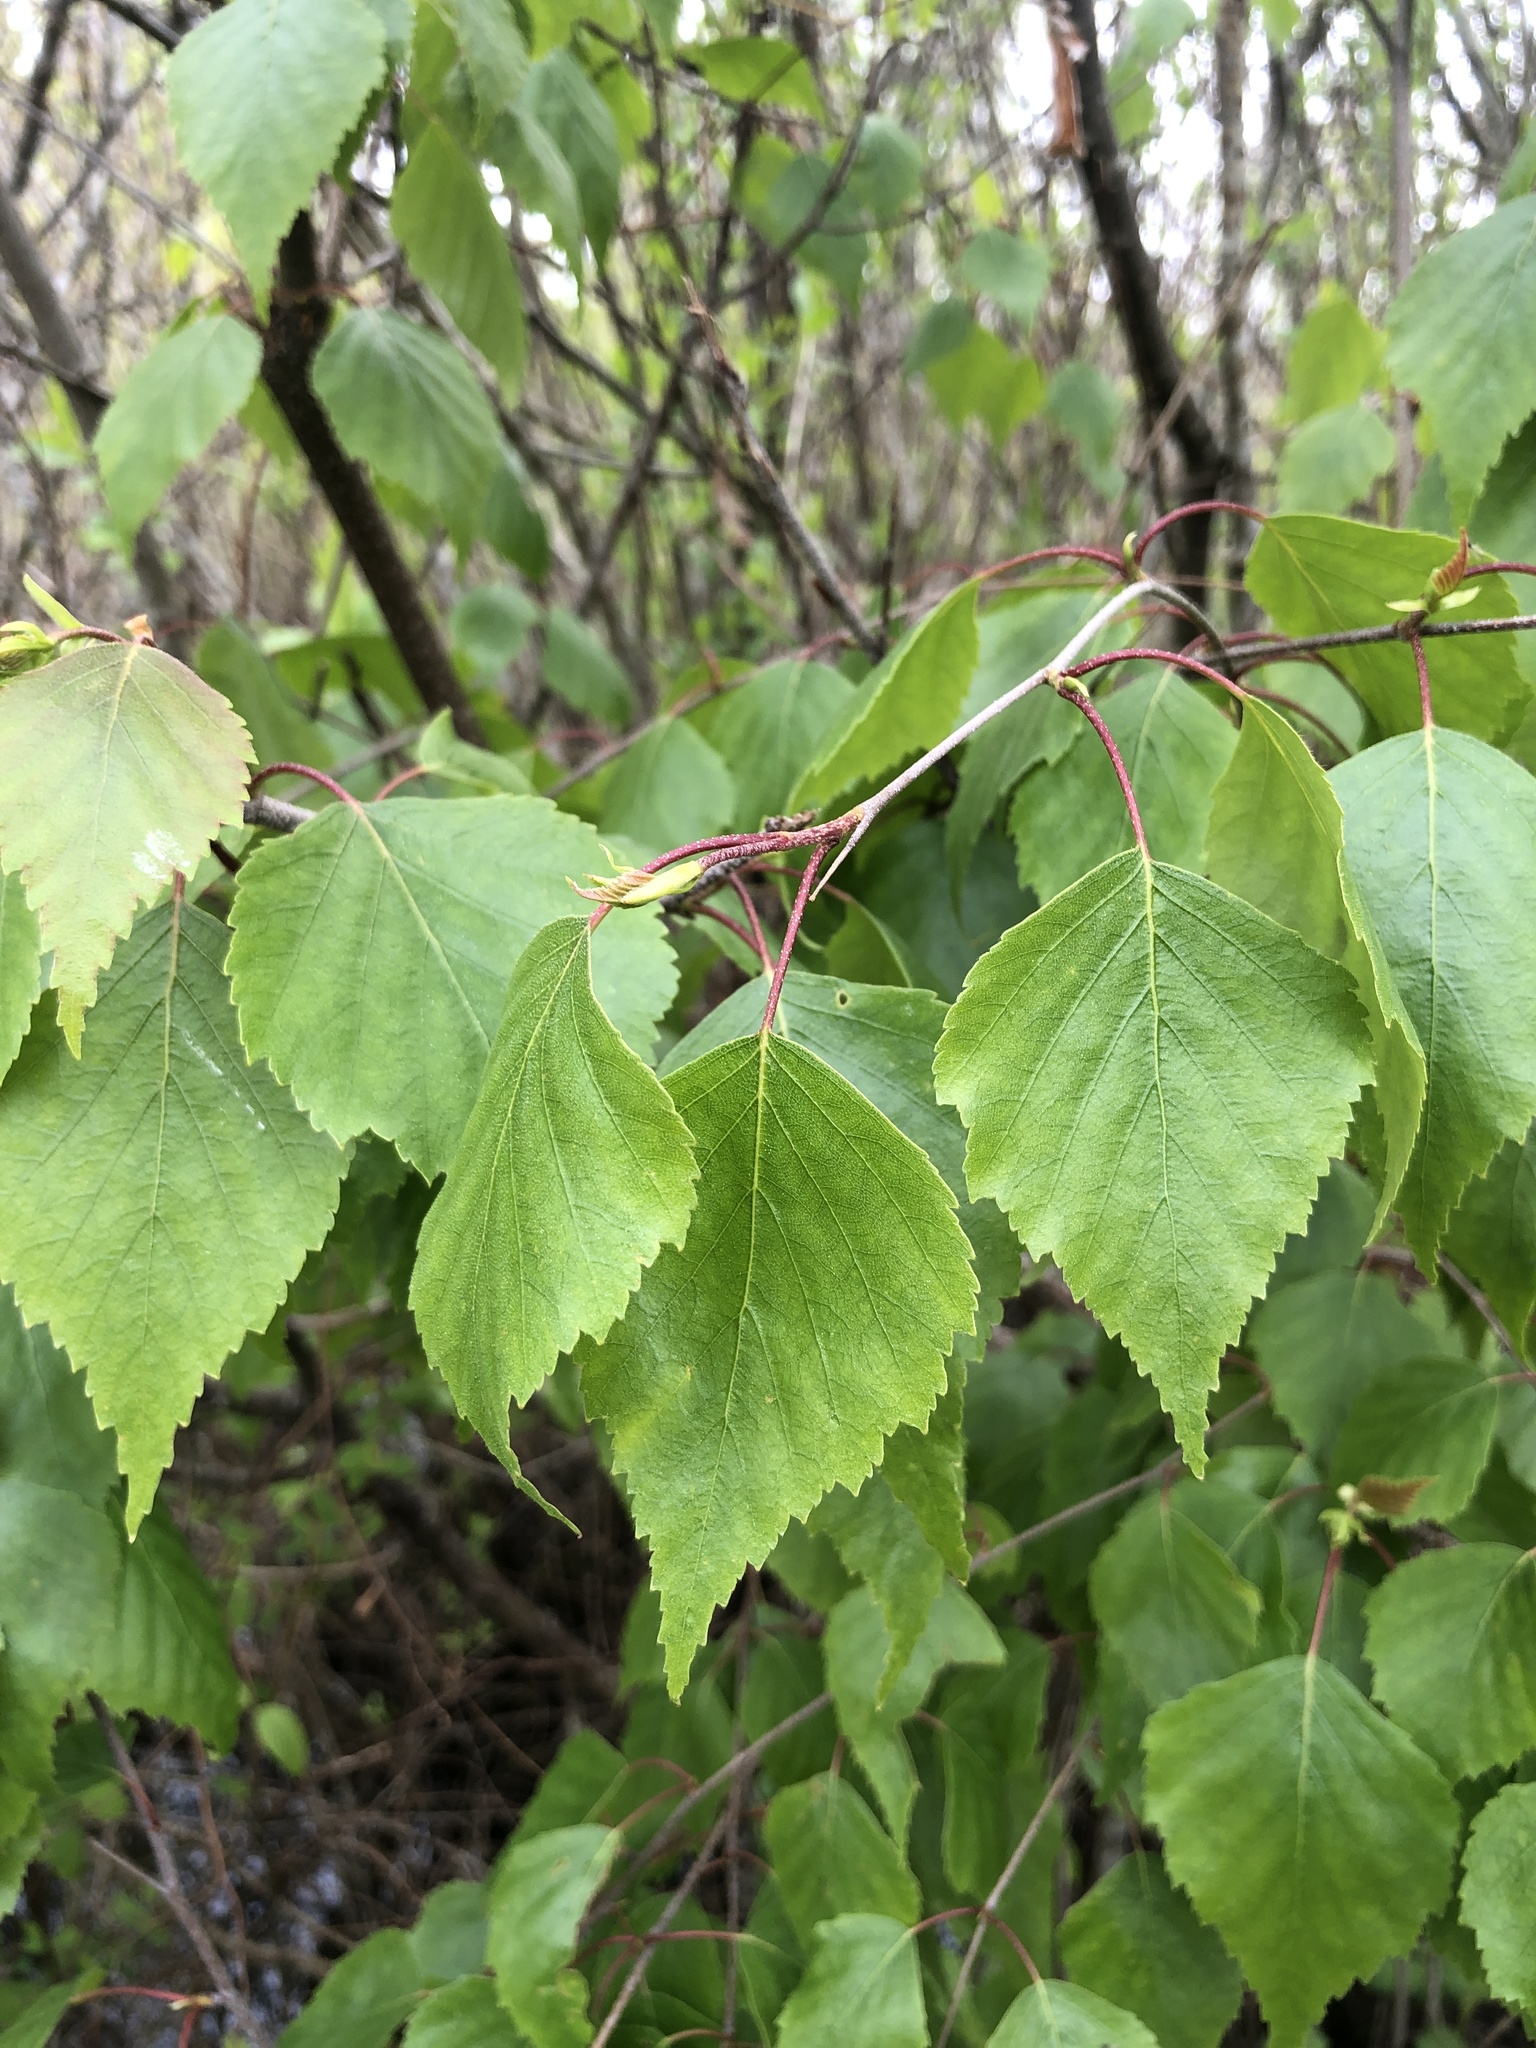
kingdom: Plantae
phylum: Tracheophyta
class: Magnoliopsida
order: Fagales
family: Betulaceae
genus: Betula
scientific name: Betula pendula
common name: Silver birch
